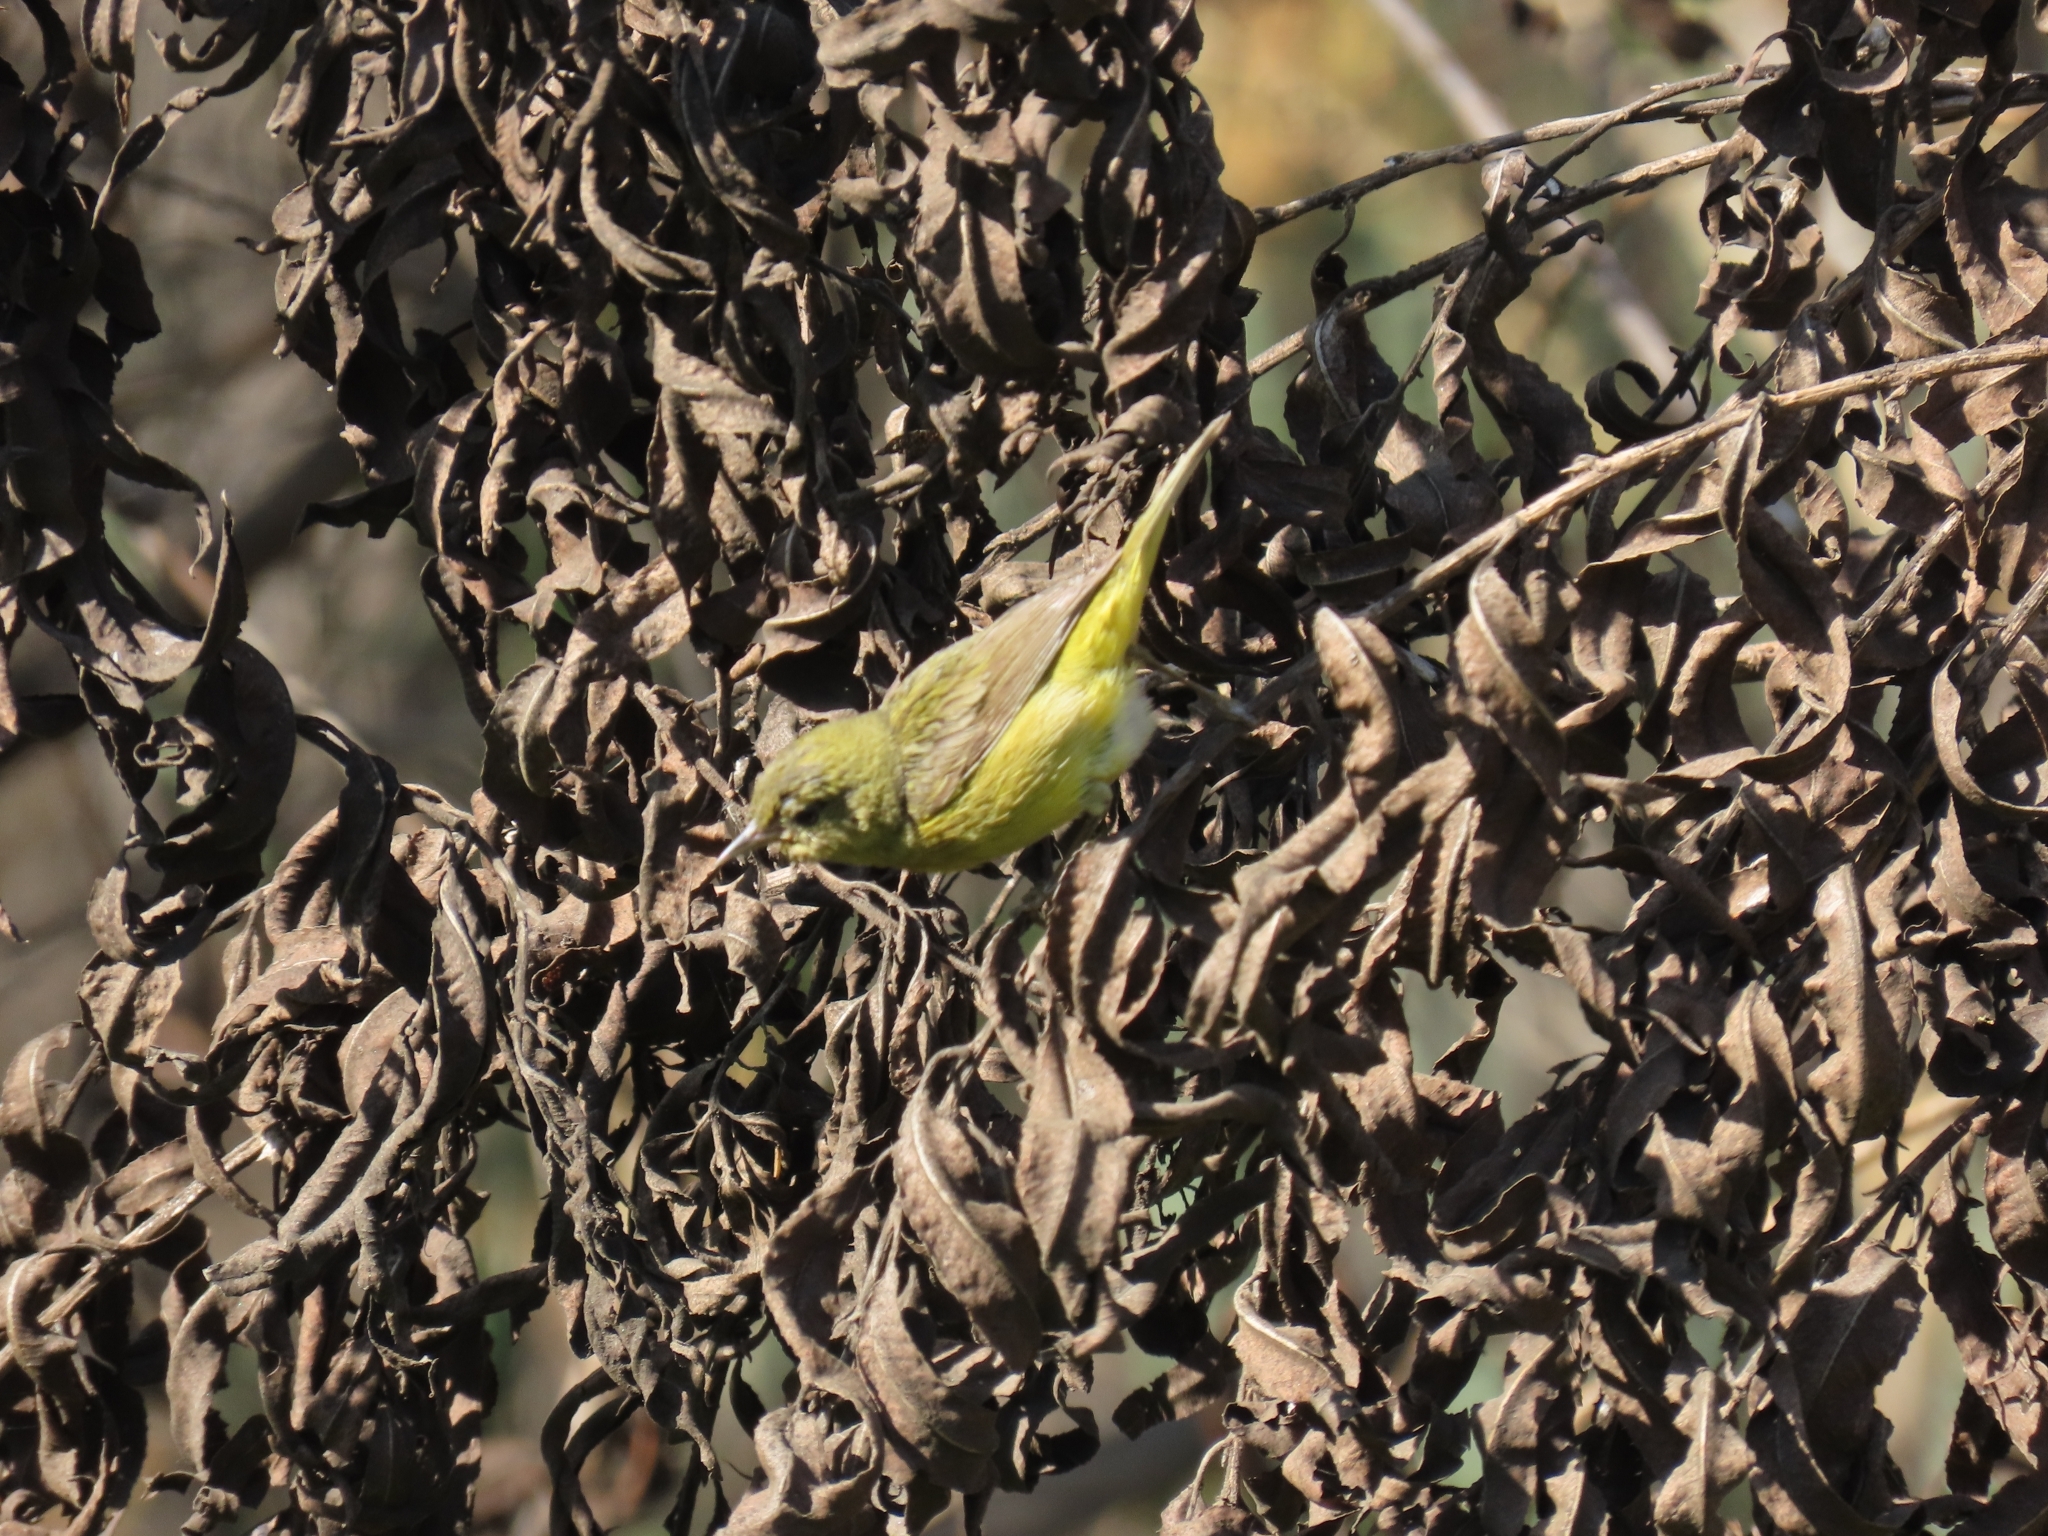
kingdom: Animalia
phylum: Chordata
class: Aves
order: Passeriformes
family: Parulidae
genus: Leiothlypis
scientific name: Leiothlypis celata
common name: Orange-crowned warbler
